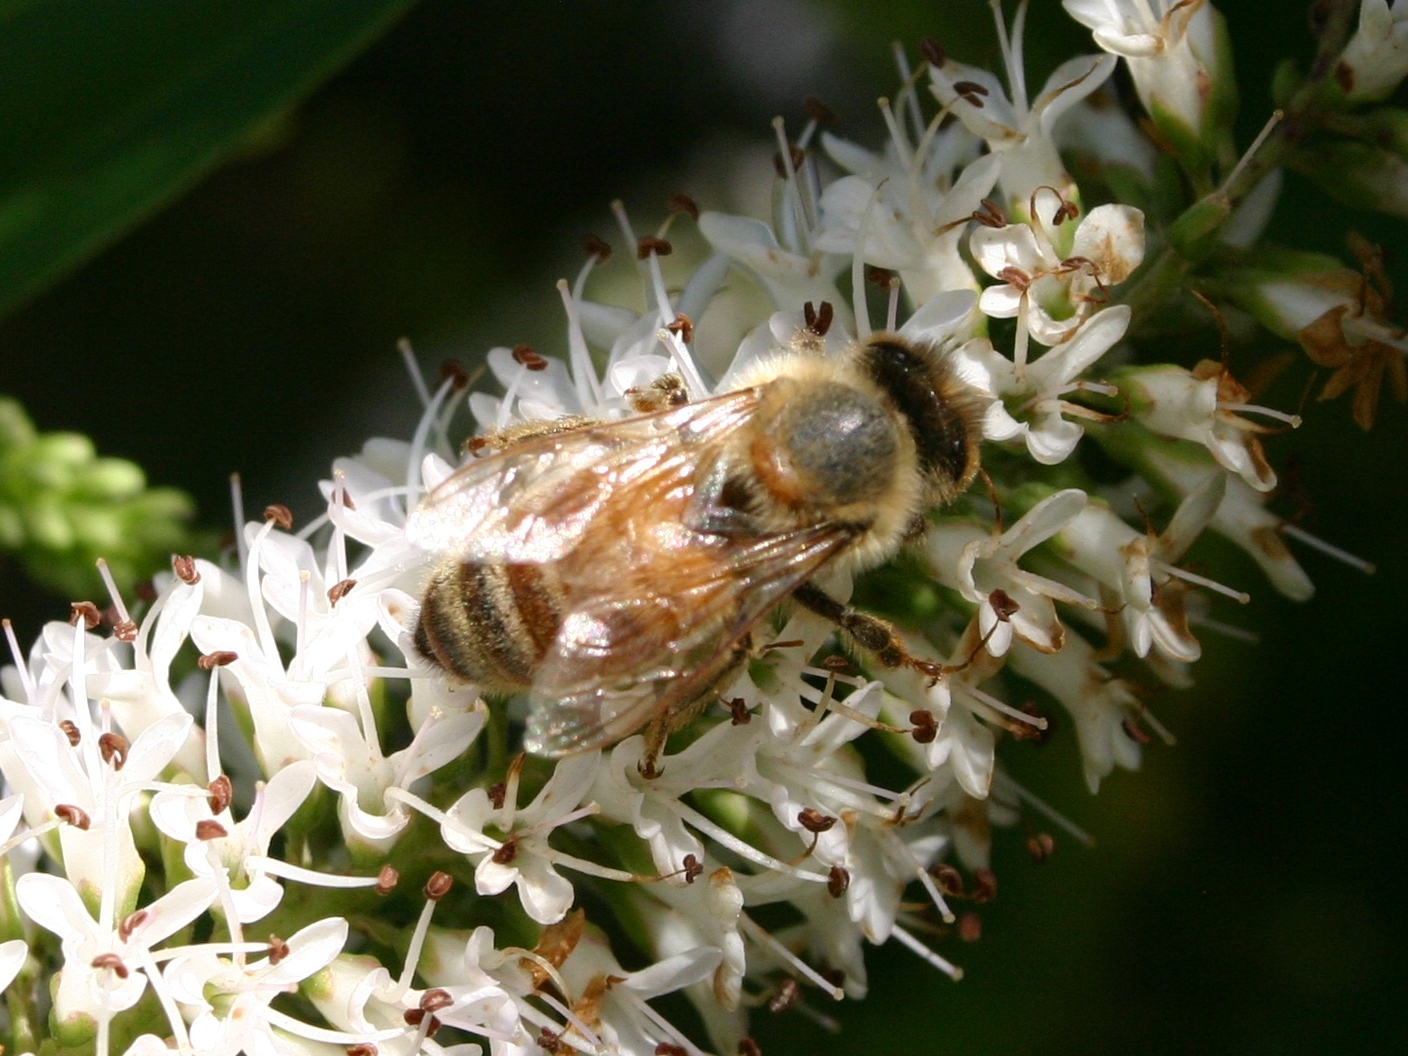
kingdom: Animalia
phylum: Arthropoda
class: Insecta
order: Hymenoptera
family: Apidae
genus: Apis
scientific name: Apis mellifera
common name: Honey bee
